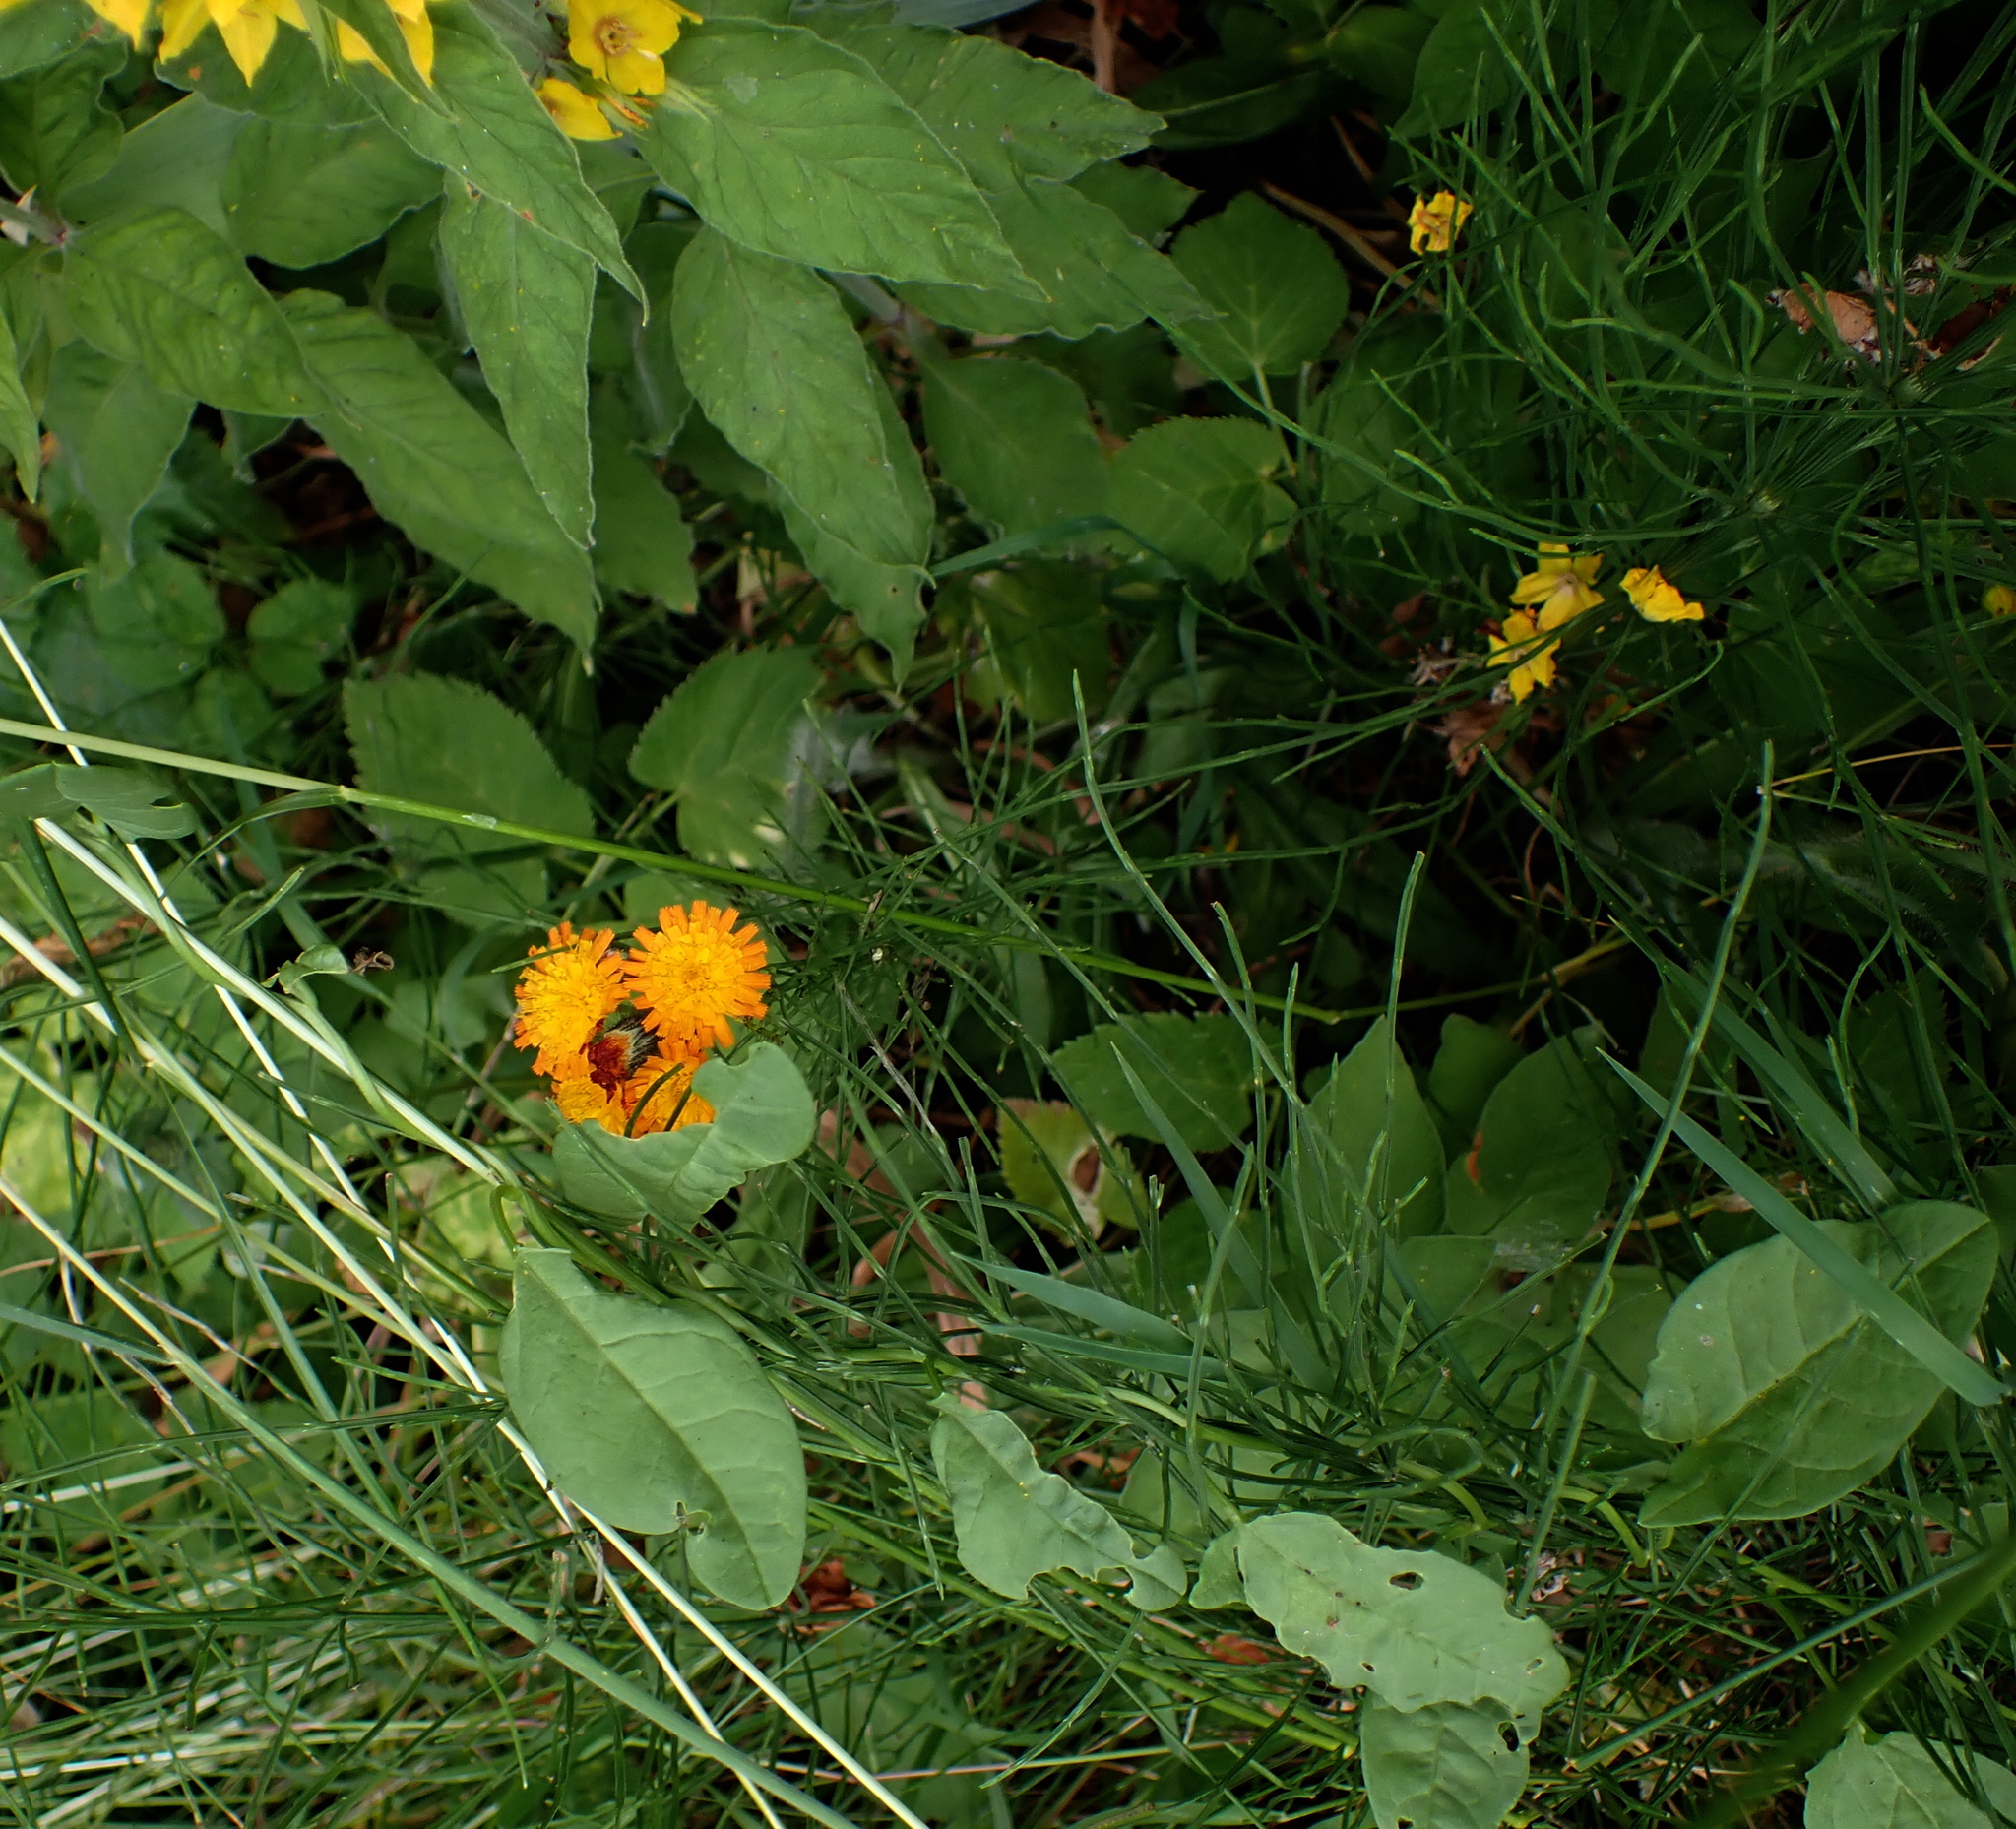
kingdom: Plantae
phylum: Tracheophyta
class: Magnoliopsida
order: Asterales
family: Asteraceae
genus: Pilosella
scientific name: Pilosella aurantiaca
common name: Fox-and-cubs
